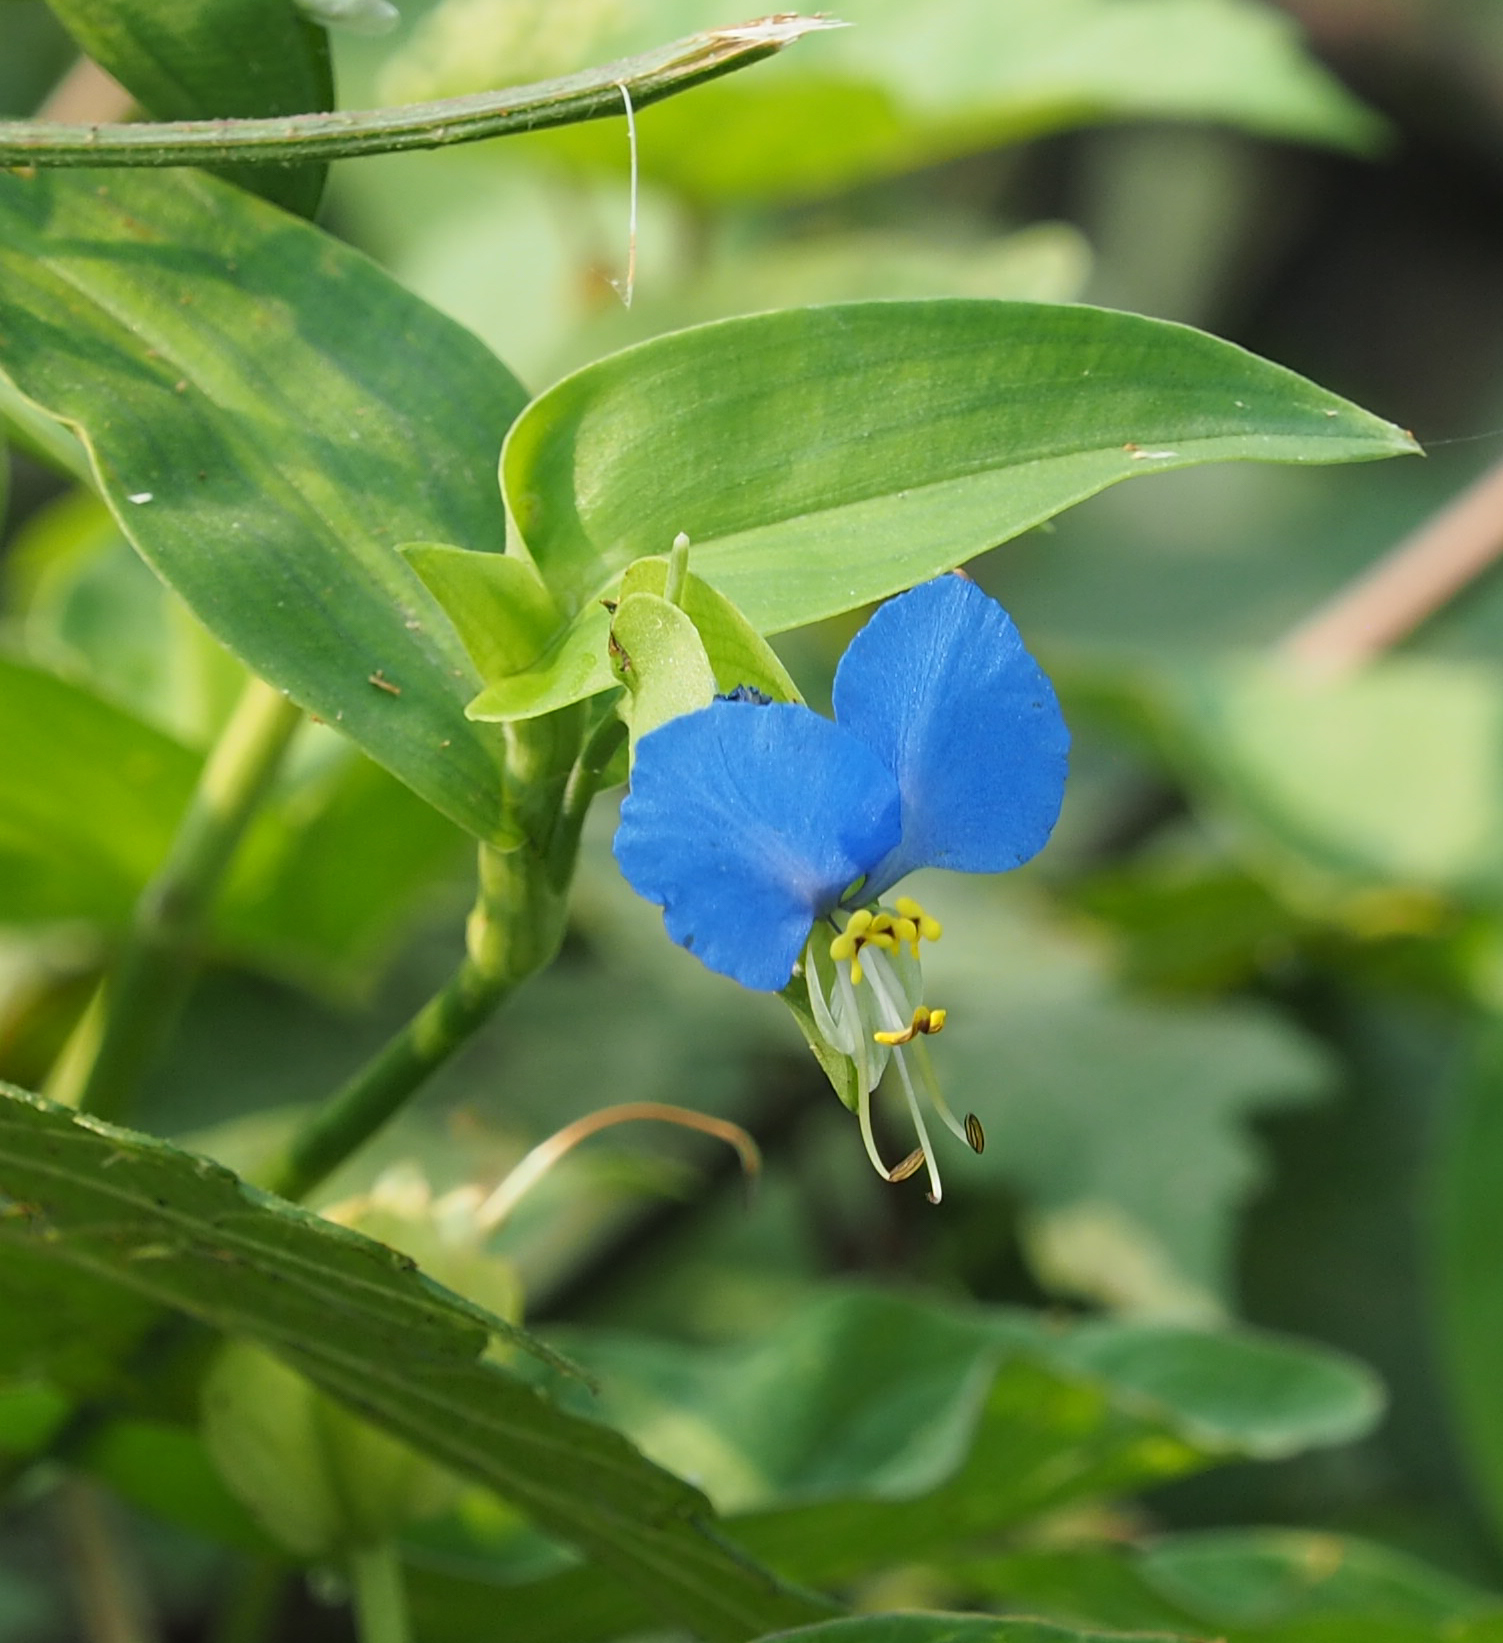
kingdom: Plantae
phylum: Tracheophyta
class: Liliopsida
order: Commelinales
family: Commelinaceae
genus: Commelina
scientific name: Commelina communis
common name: Asiatic dayflower
